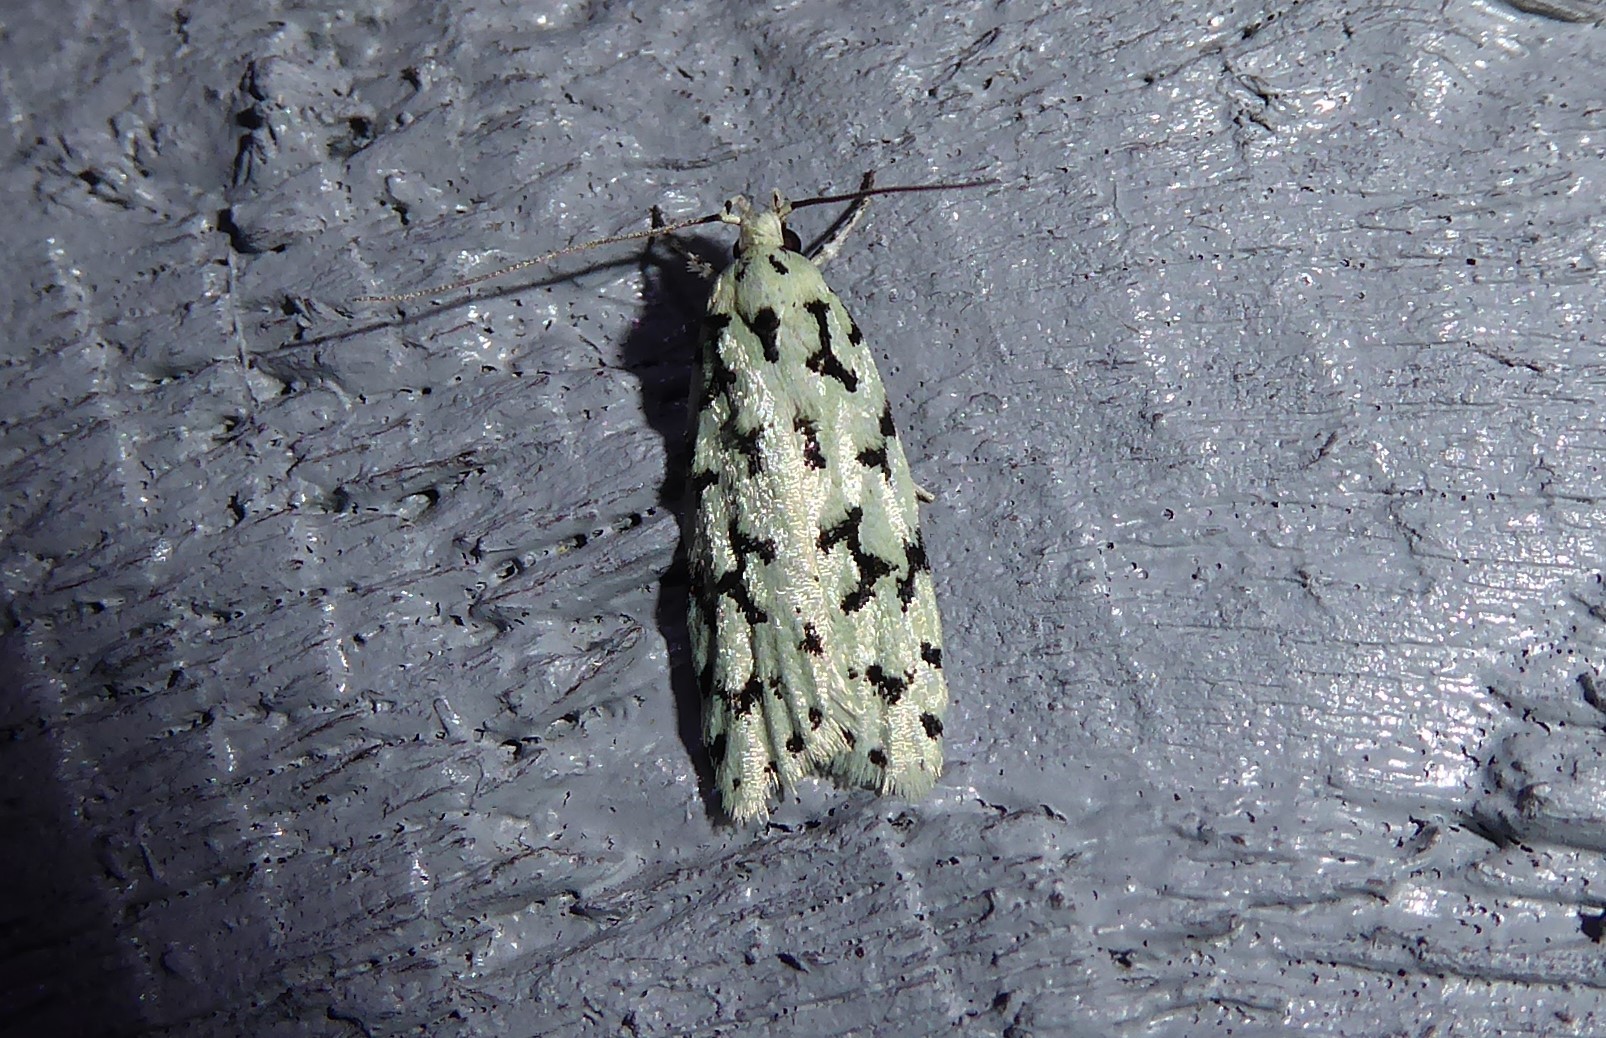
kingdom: Animalia
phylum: Arthropoda
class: Insecta
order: Lepidoptera
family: Oecophoridae
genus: Izatha
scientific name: Izatha huttoni
